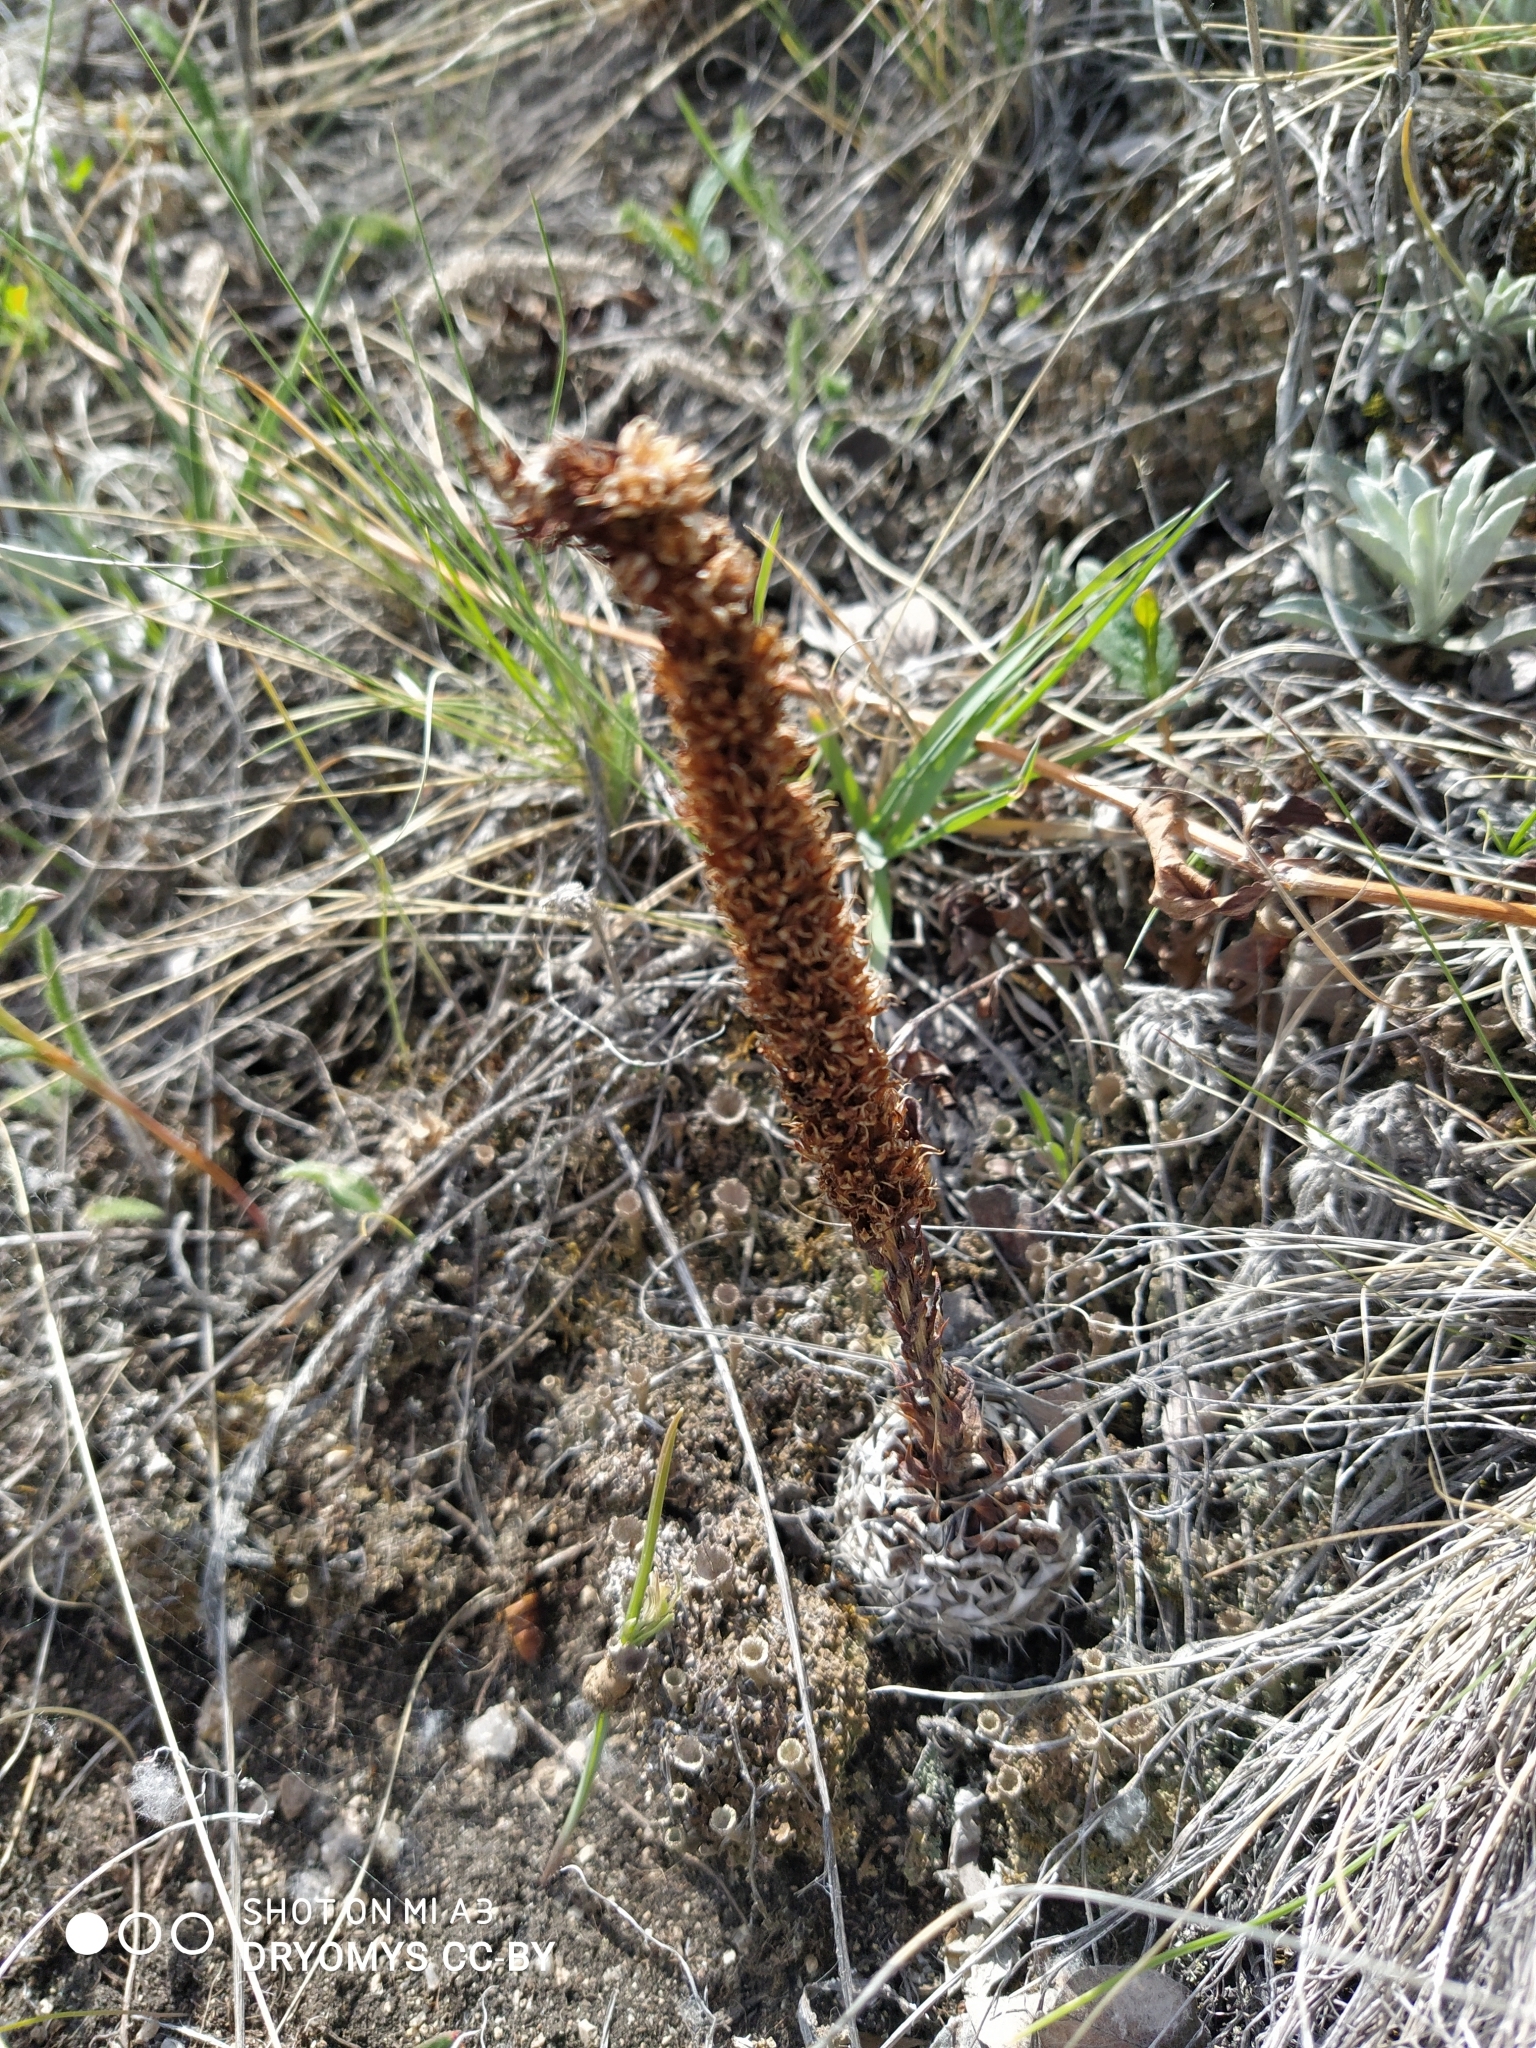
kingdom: Plantae
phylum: Tracheophyta
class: Magnoliopsida
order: Saxifragales
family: Crassulaceae
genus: Orostachys
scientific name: Orostachys spinosa
